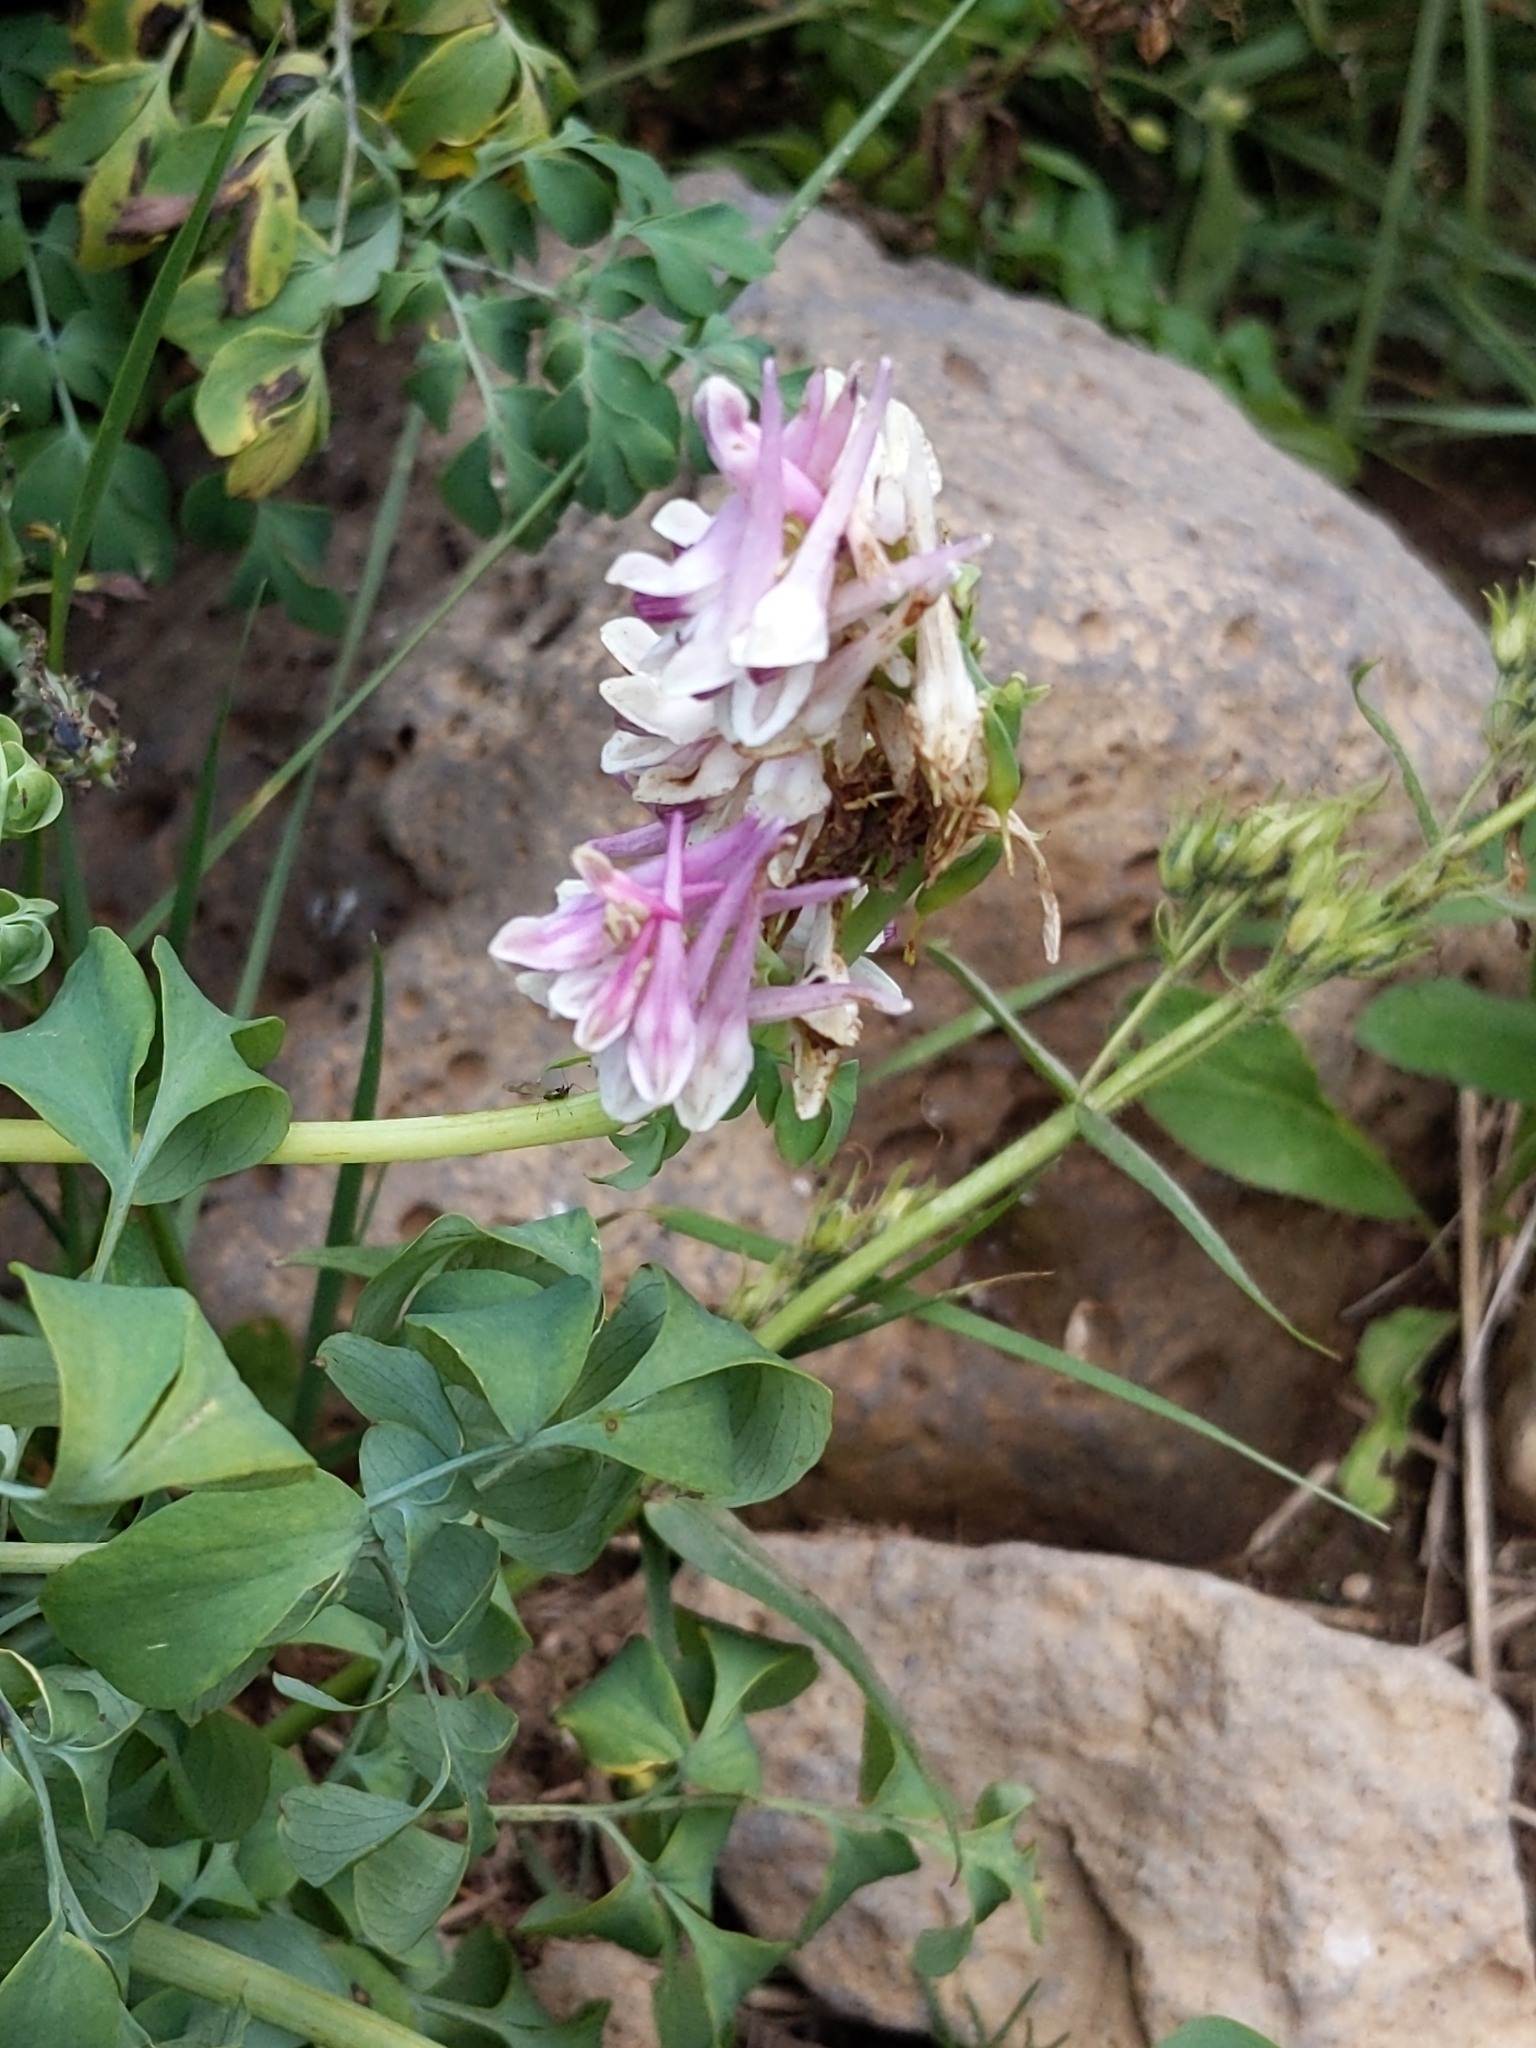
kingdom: Plantae
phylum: Tracheophyta
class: Magnoliopsida
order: Ranunculales
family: Papaveraceae
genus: Corydalis
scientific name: Corydalis caseana
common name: Fitweed
